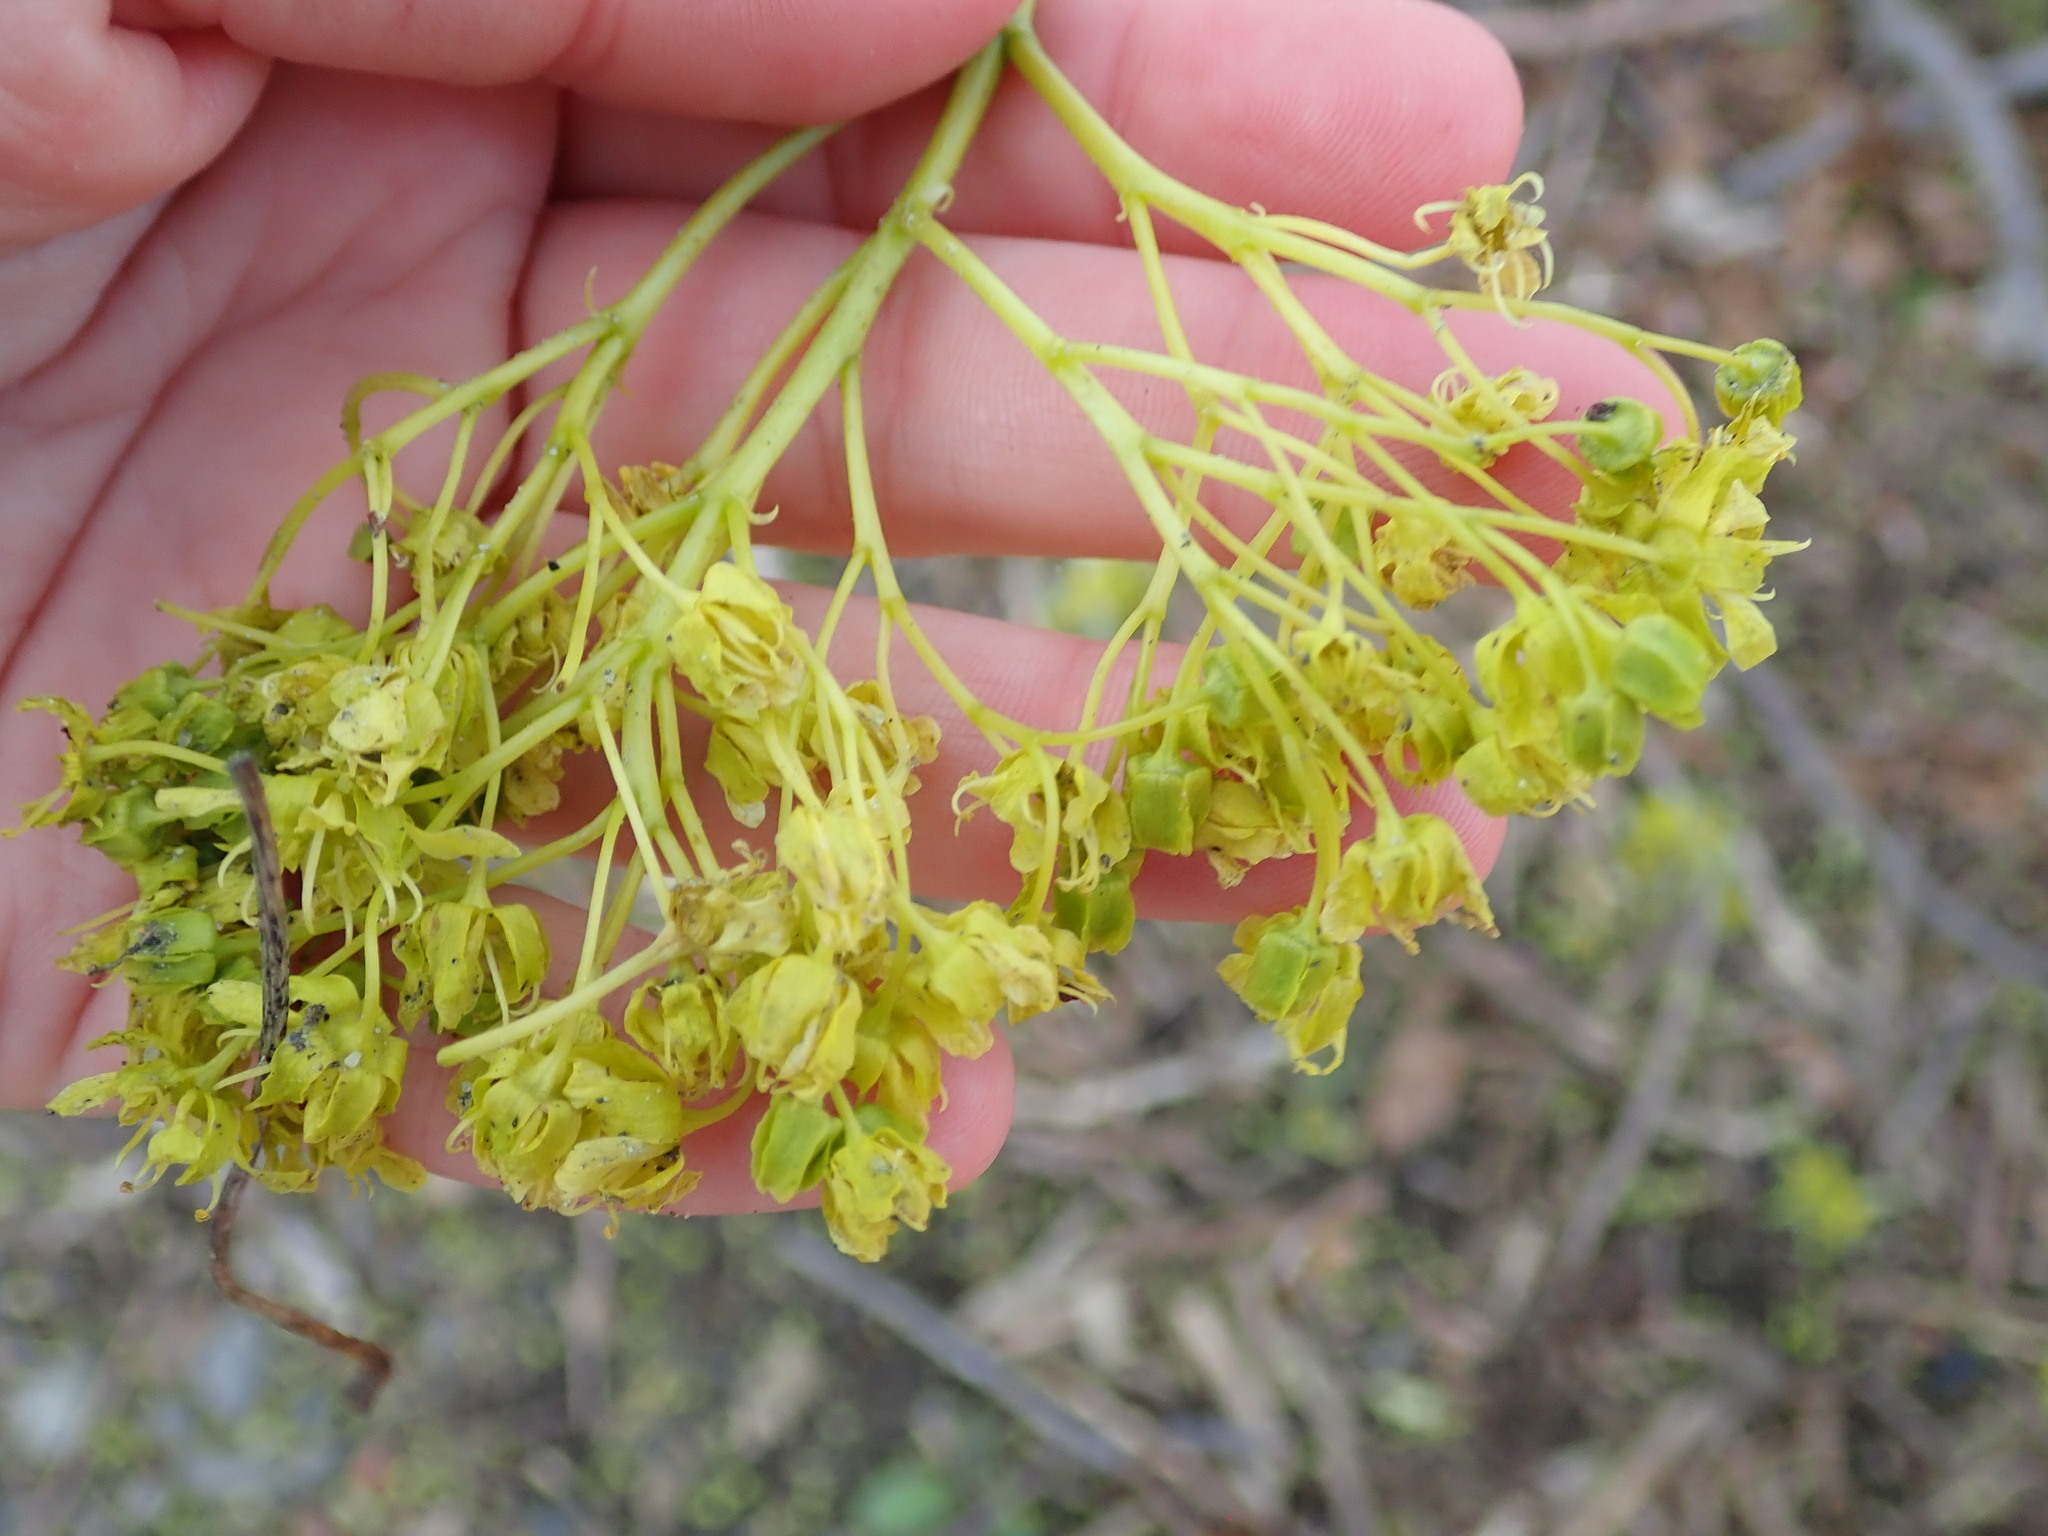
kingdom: Plantae
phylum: Tracheophyta
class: Magnoliopsida
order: Sapindales
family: Sapindaceae
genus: Acer
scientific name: Acer platanoides
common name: Norway maple
